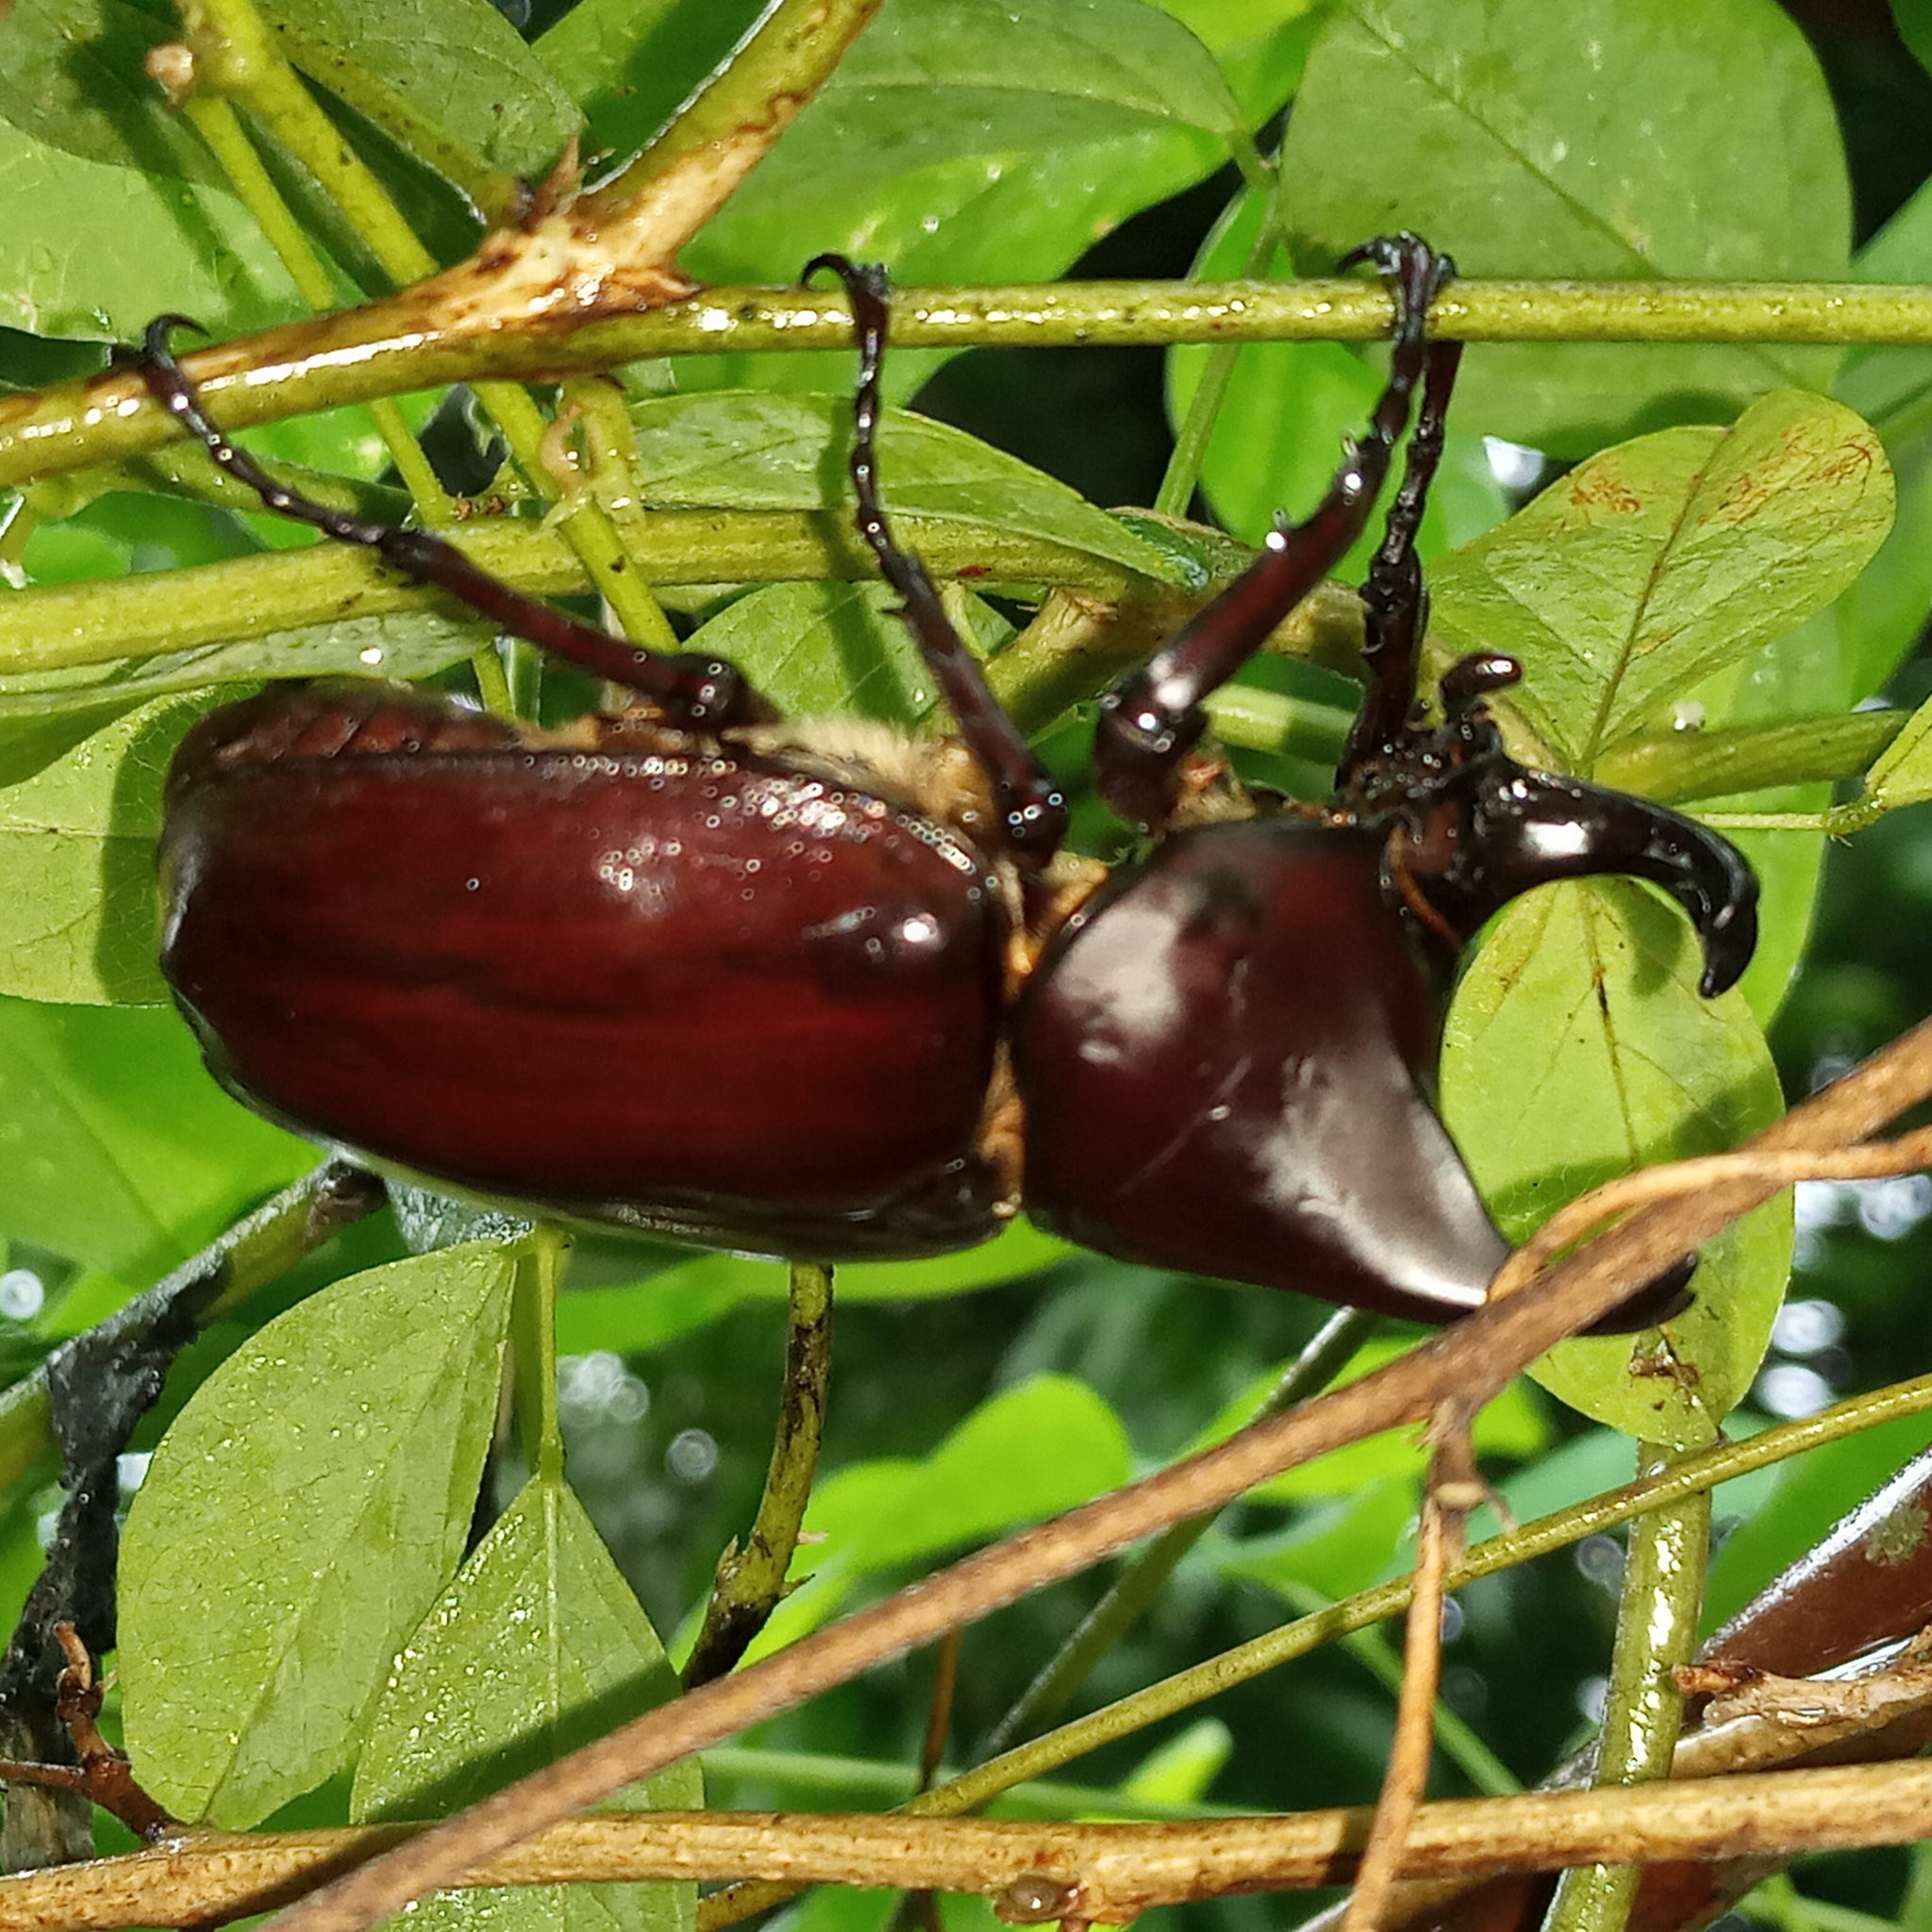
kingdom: Animalia
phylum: Arthropoda
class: Insecta
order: Coleoptera
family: Scarabaeidae
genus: Xylotrupes
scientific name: Xylotrupes philippinensis
